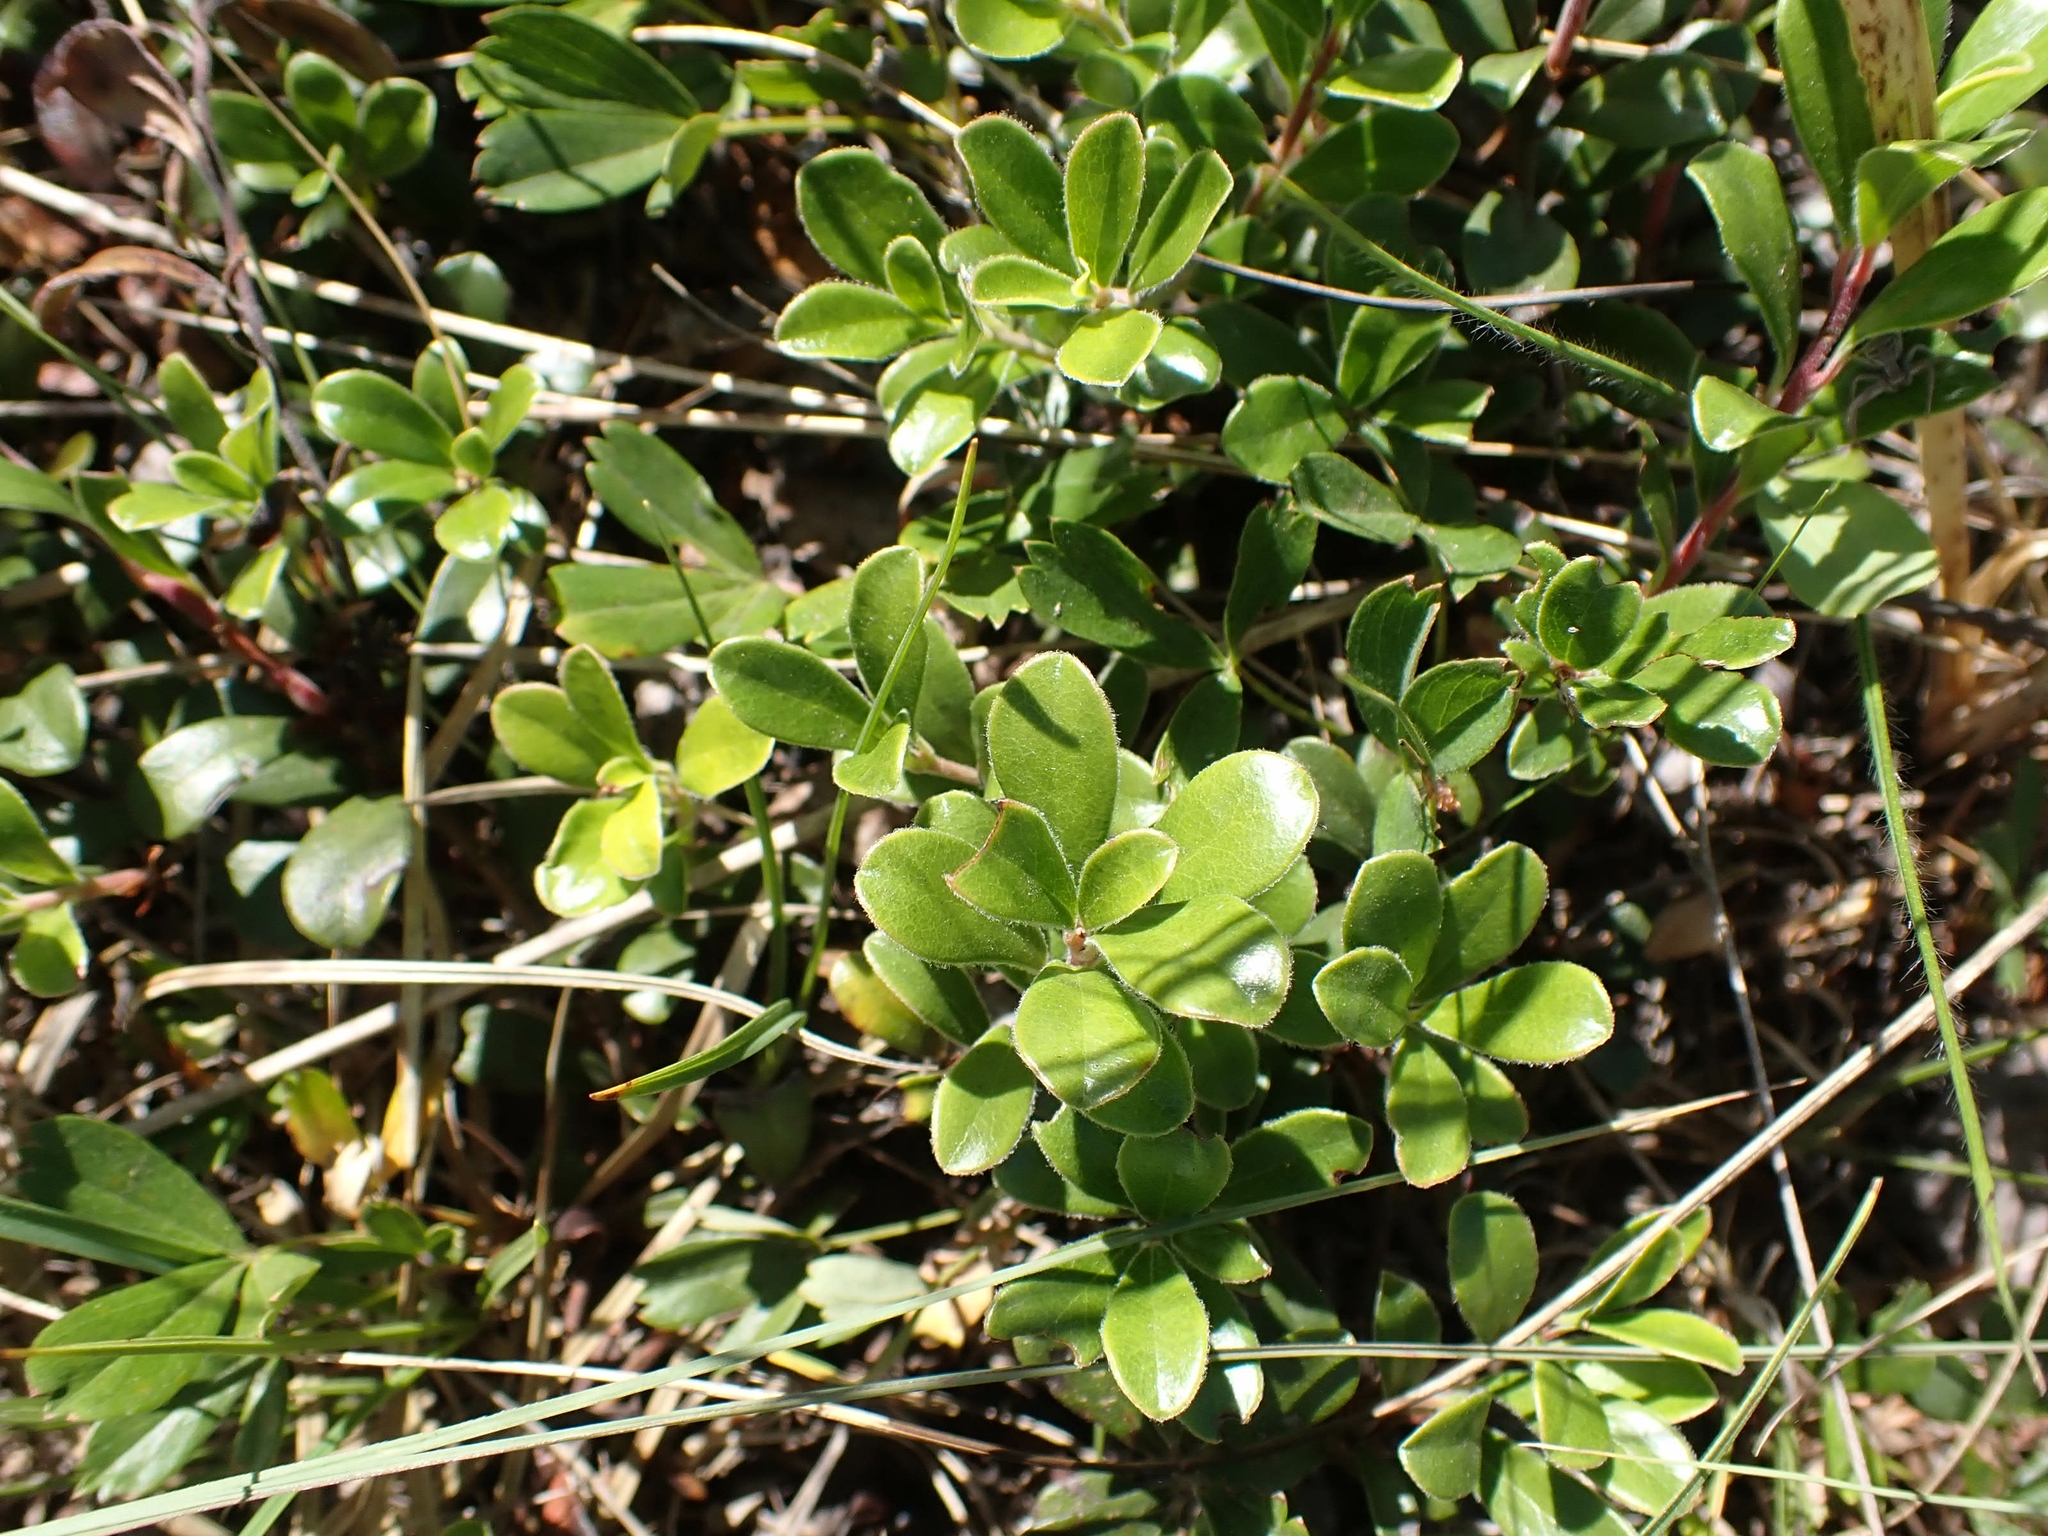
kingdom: Plantae
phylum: Tracheophyta
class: Magnoliopsida
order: Ericales
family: Ericaceae
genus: Arctostaphylos
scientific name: Arctostaphylos uva-ursi
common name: Bearberry
